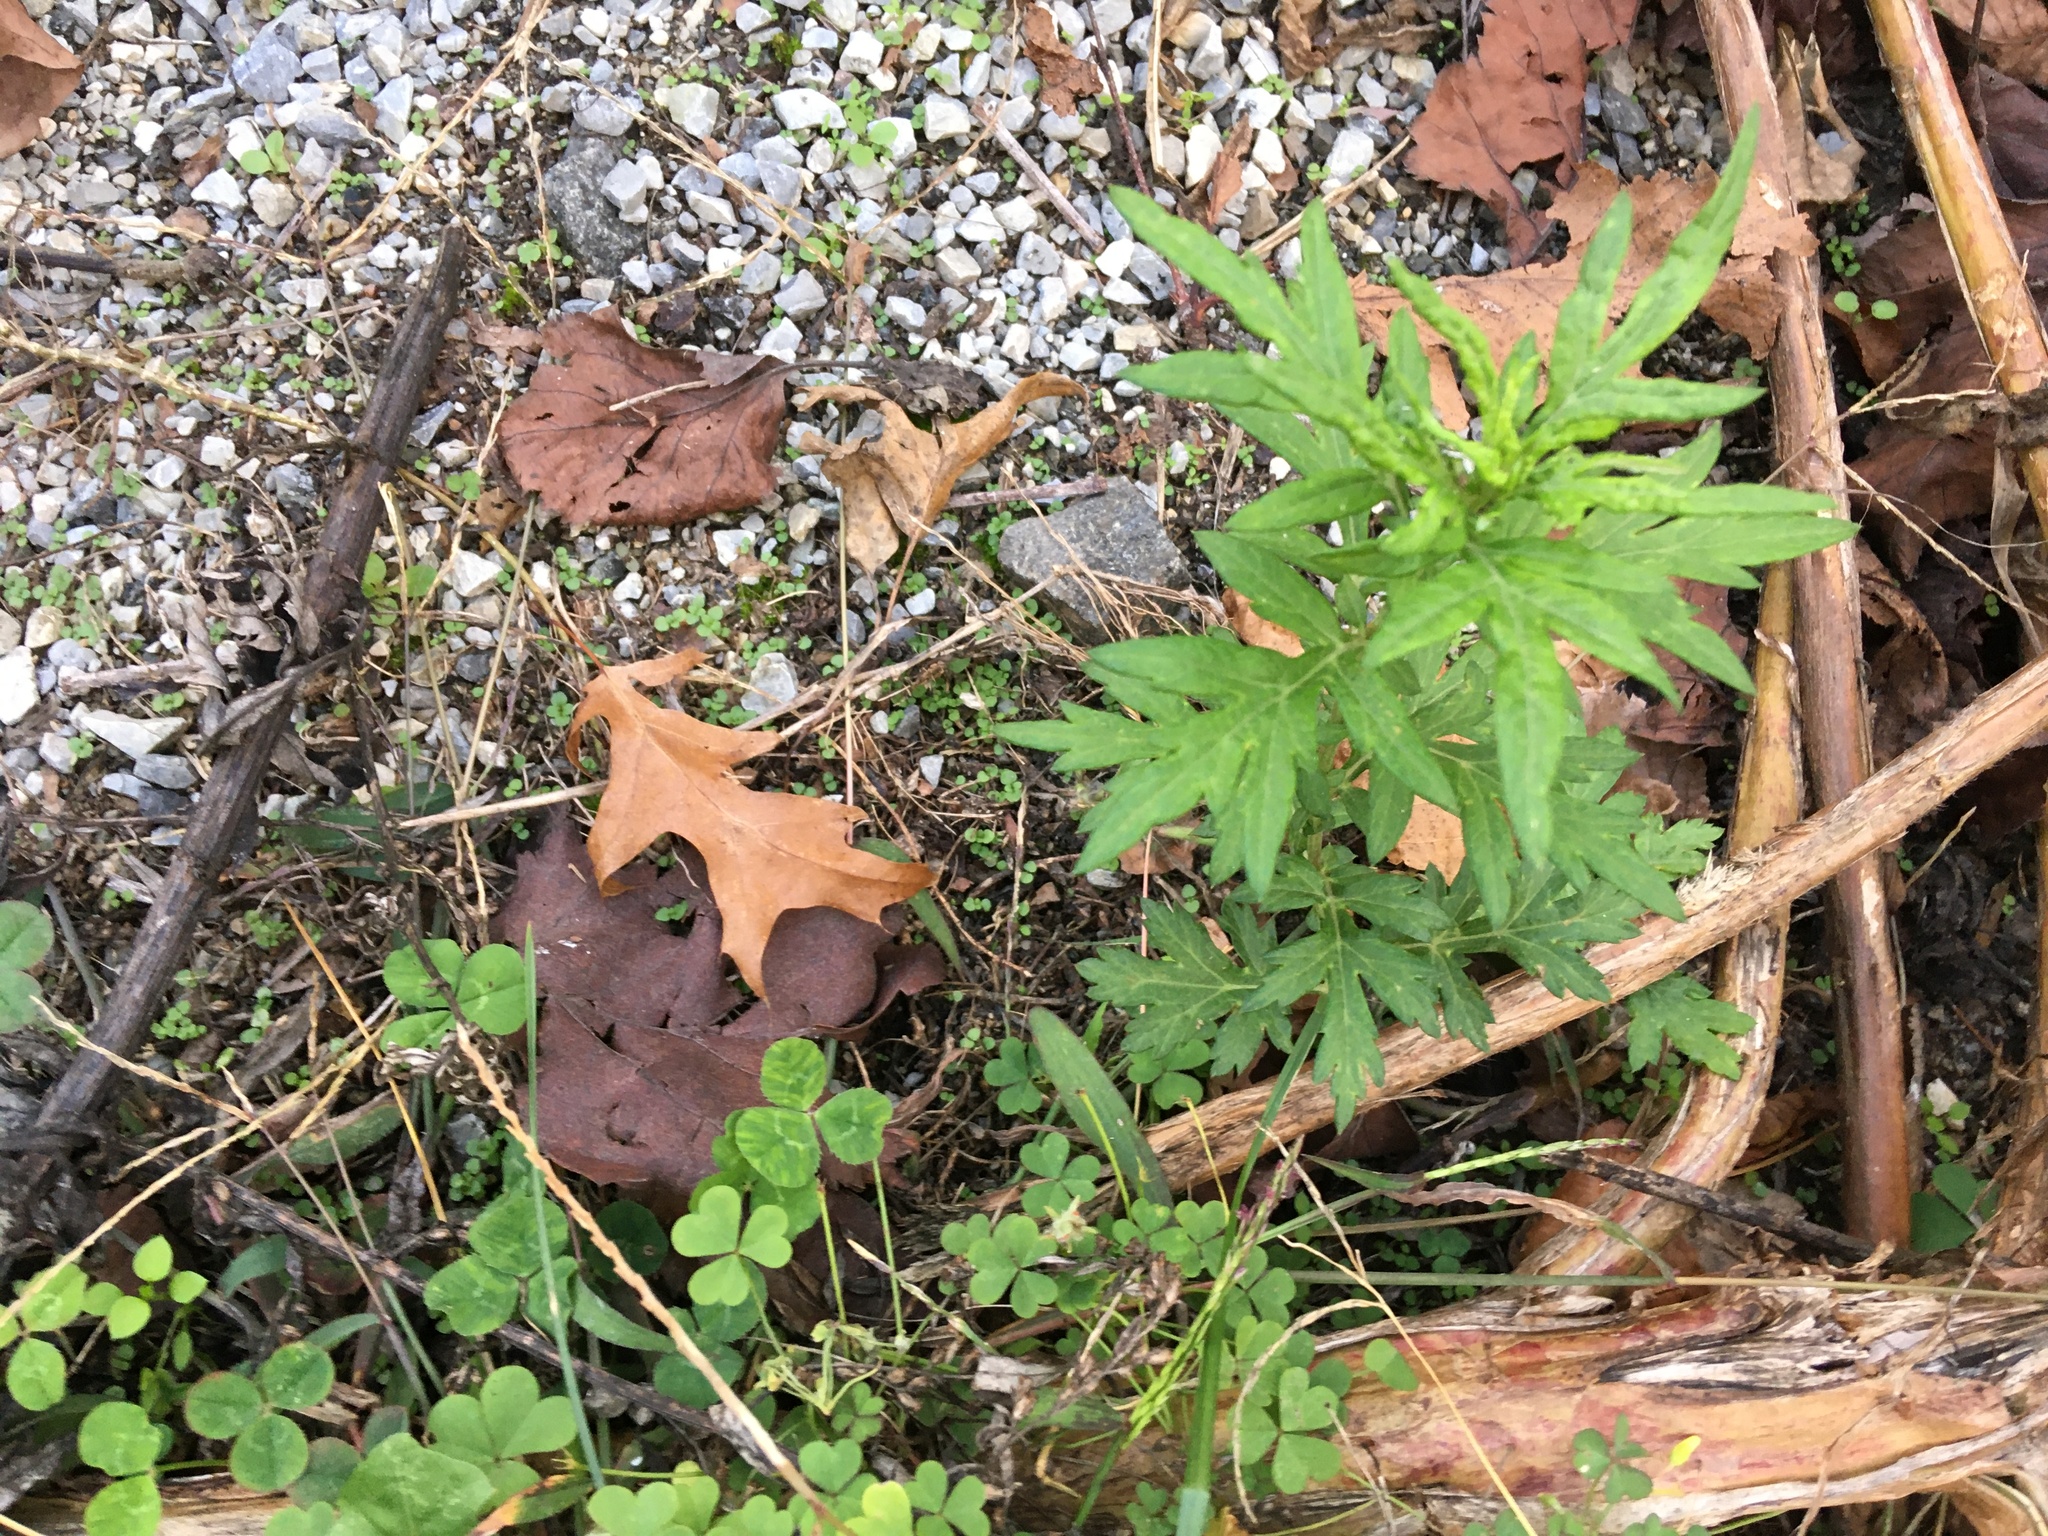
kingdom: Plantae
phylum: Tracheophyta
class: Magnoliopsida
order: Asterales
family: Asteraceae
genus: Artemisia
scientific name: Artemisia vulgaris
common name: Mugwort
